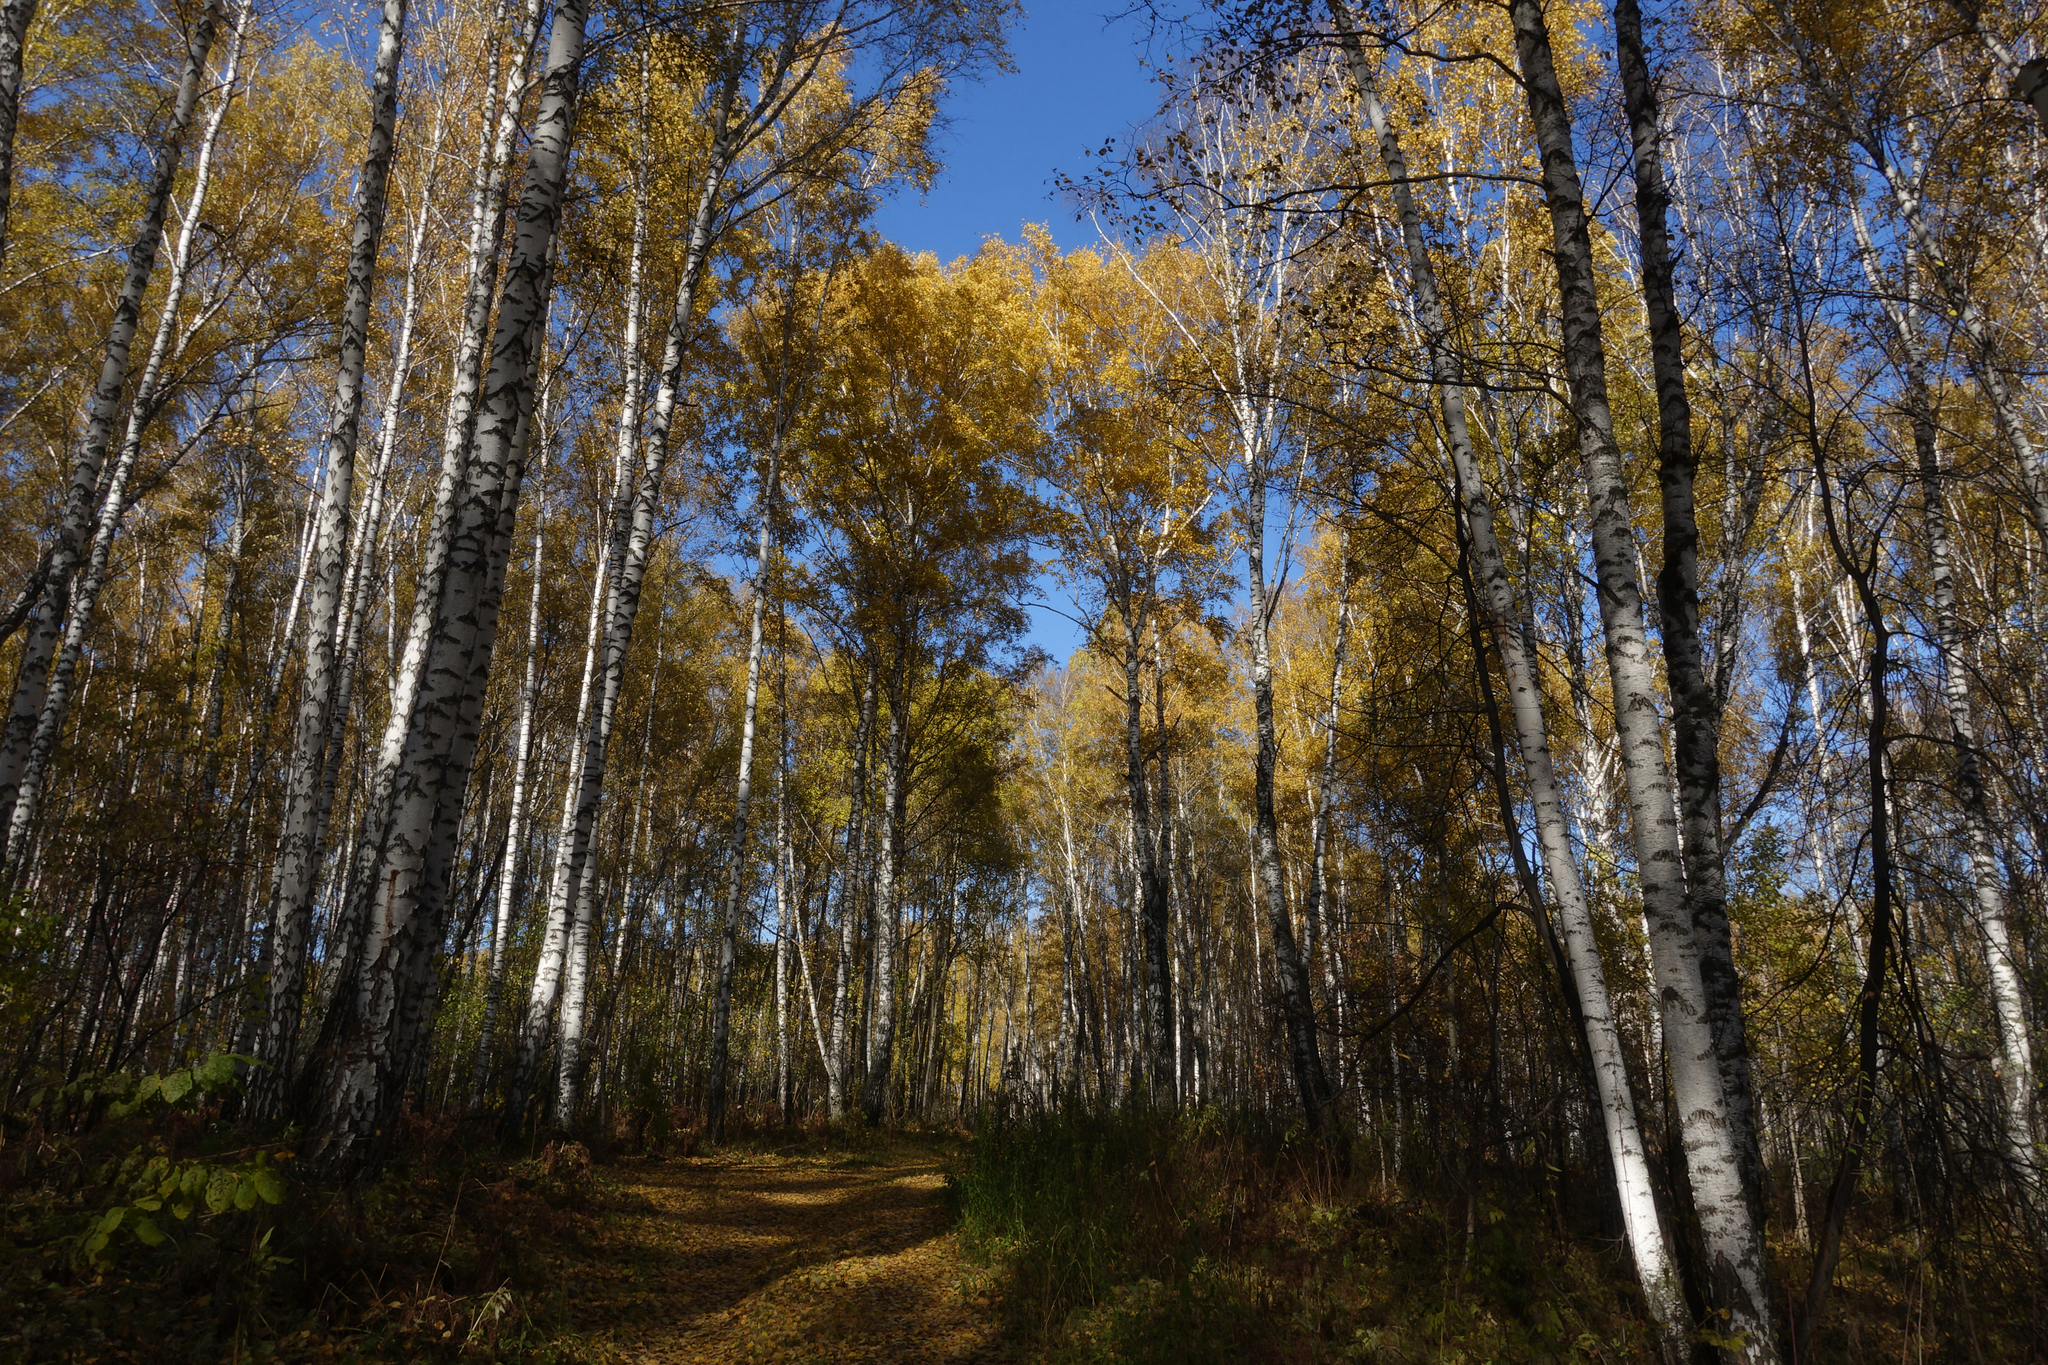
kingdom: Plantae
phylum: Tracheophyta
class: Magnoliopsida
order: Fagales
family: Betulaceae
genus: Betula
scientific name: Betula pendula
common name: Silver birch
